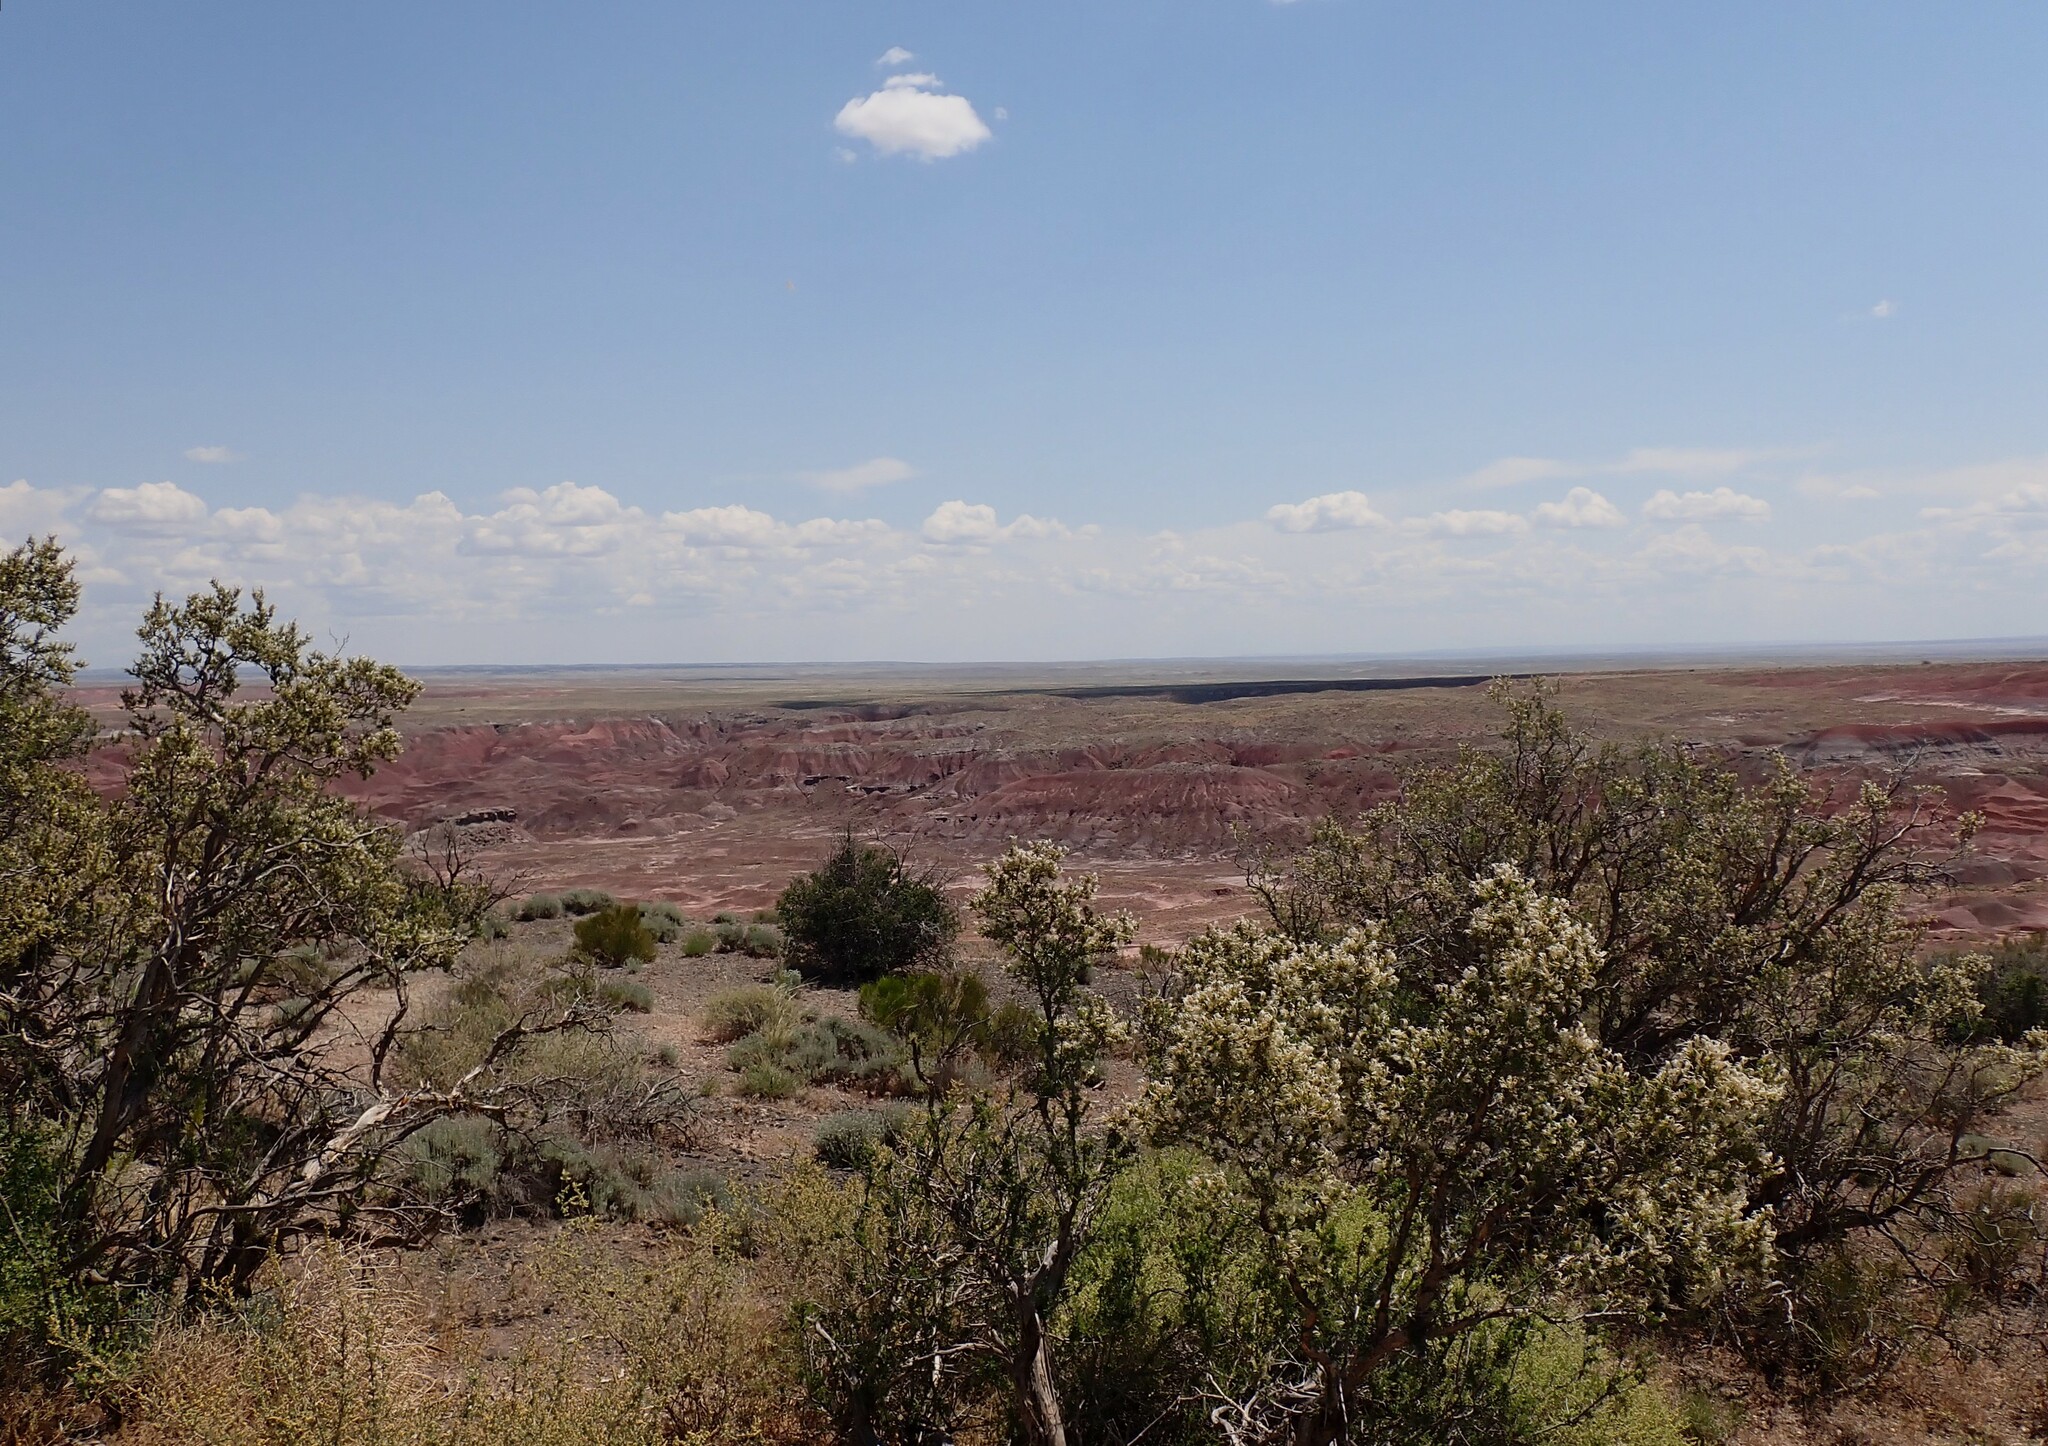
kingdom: Plantae
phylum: Tracheophyta
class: Magnoliopsida
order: Rosales
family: Rosaceae
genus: Purshia
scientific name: Purshia stansburiana
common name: Stansbury's cliffrose
